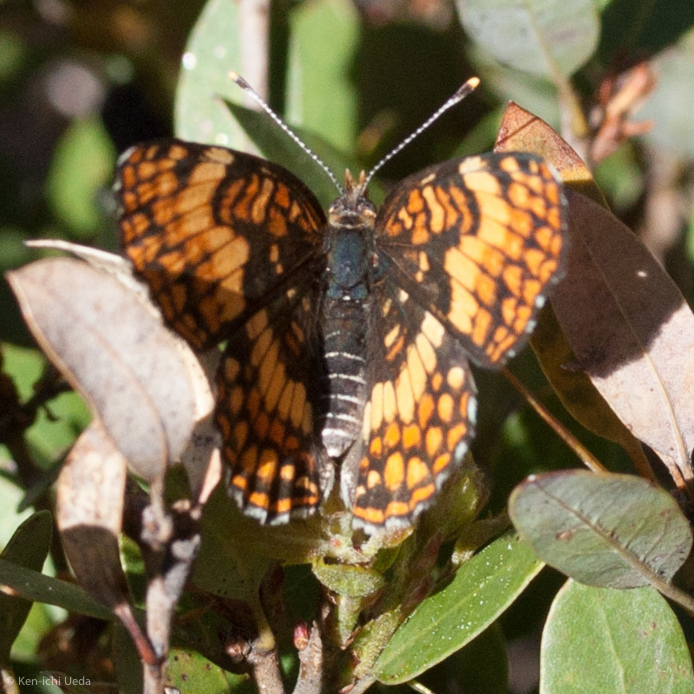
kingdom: Animalia
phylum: Arthropoda
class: Insecta
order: Lepidoptera
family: Nymphalidae
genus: Chlosyne
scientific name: Chlosyne hoffmanni
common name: Hoffmann's checkerspot
